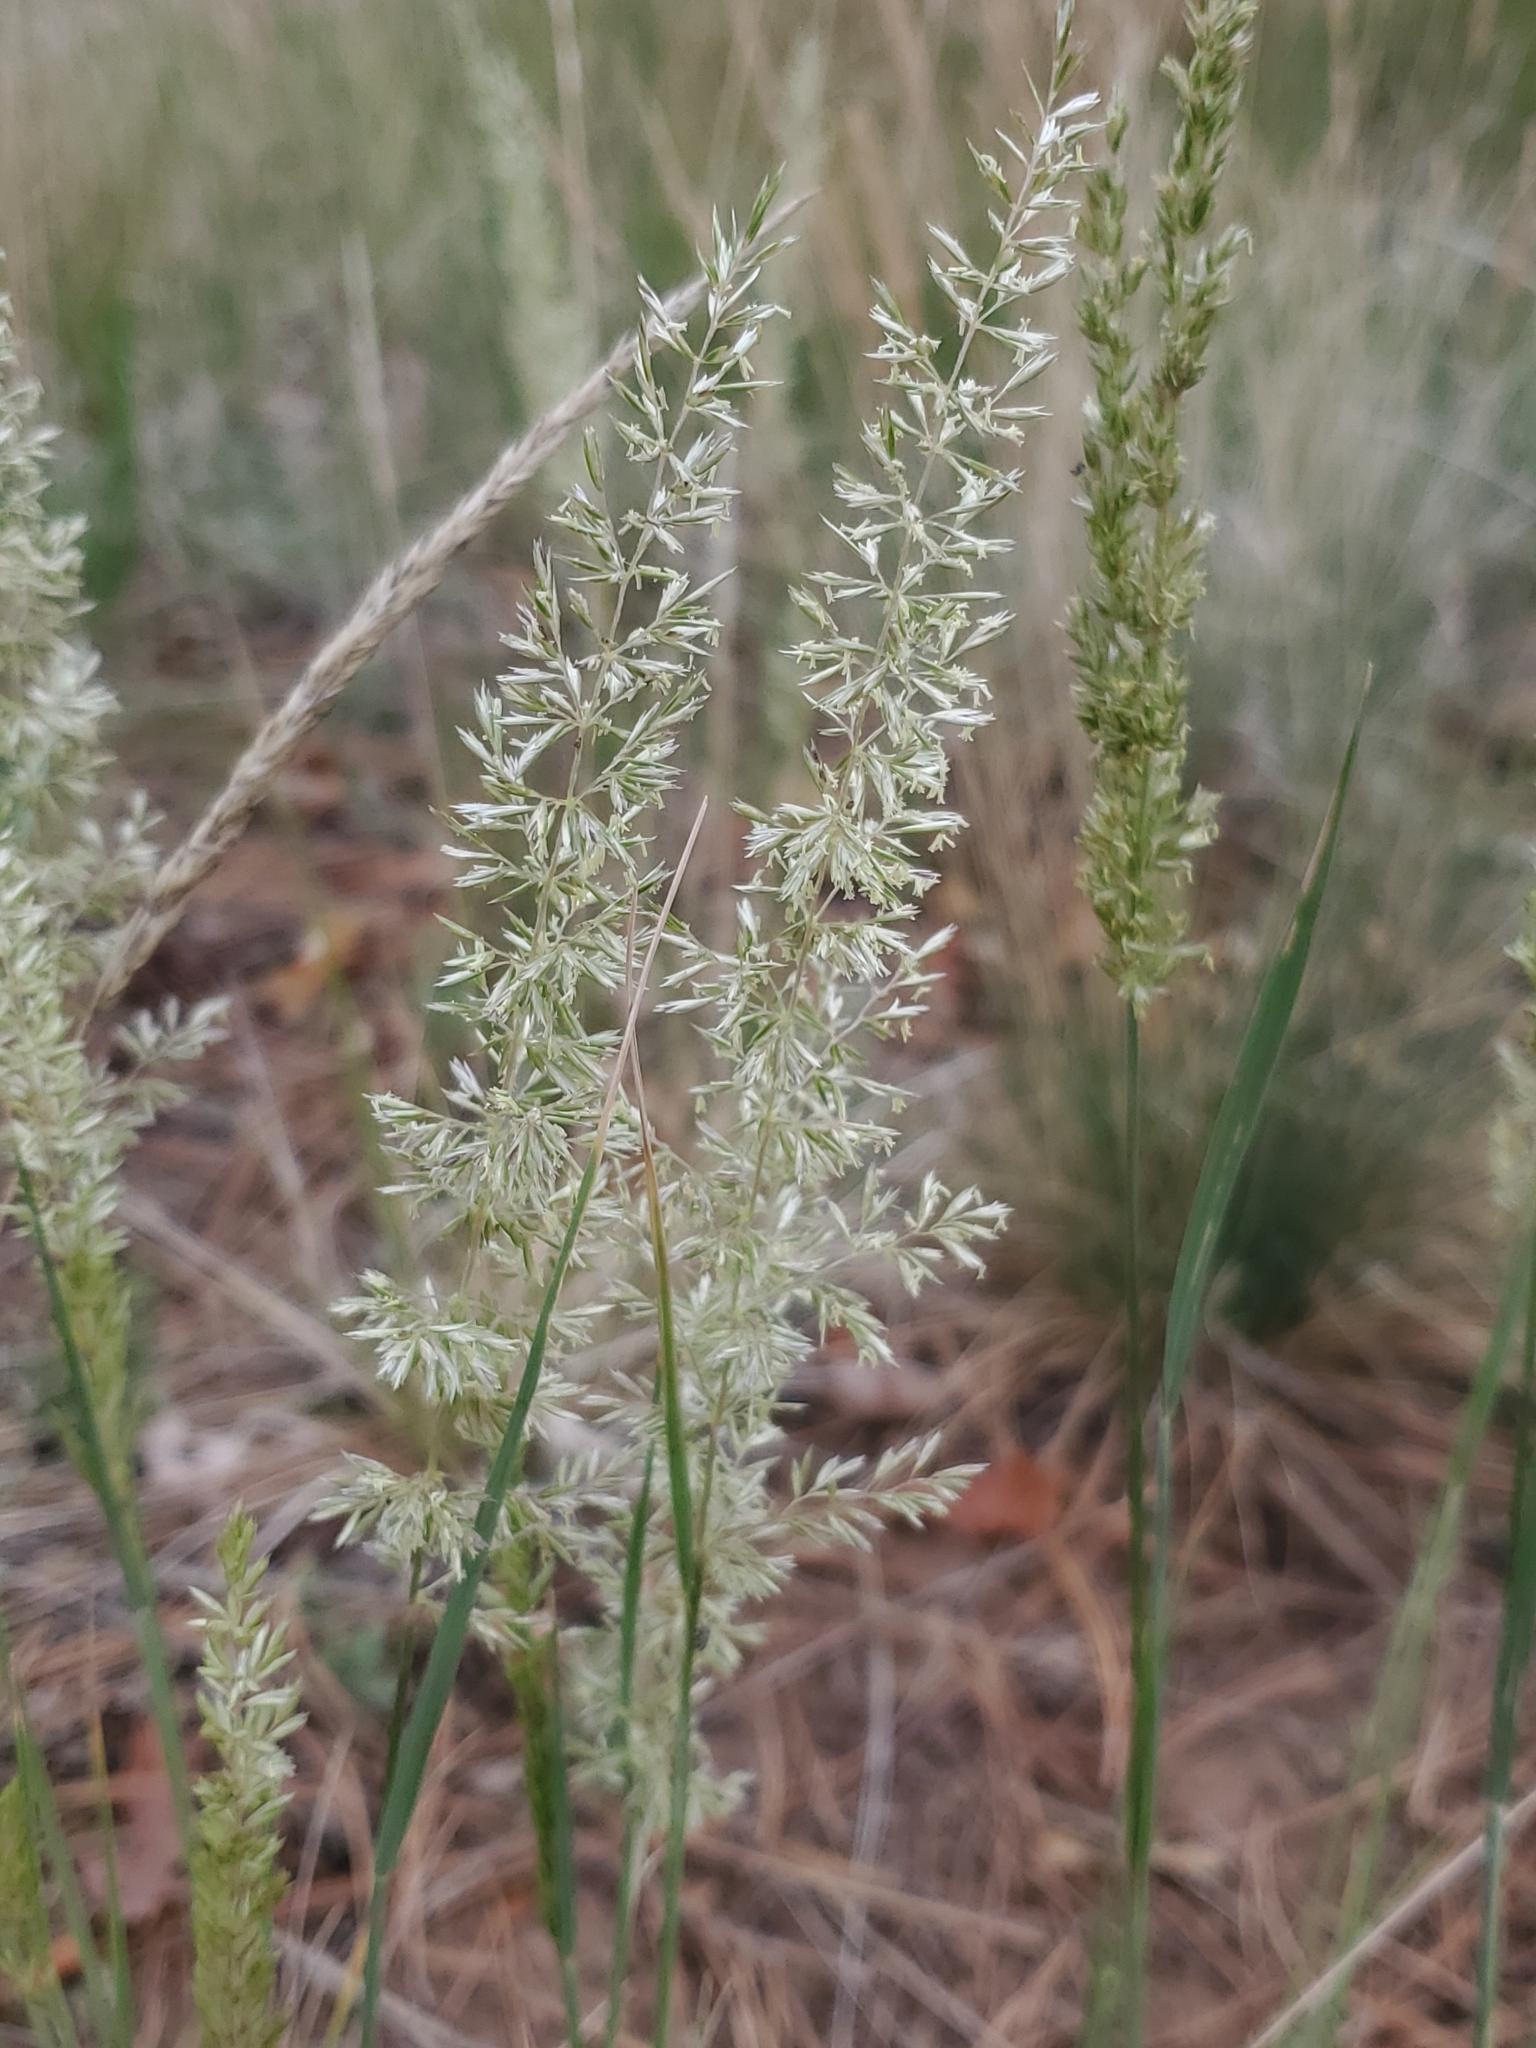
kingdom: Plantae
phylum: Tracheophyta
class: Liliopsida
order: Poales
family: Poaceae
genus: Koeleria
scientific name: Koeleria macrantha
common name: Crested hair-grass
